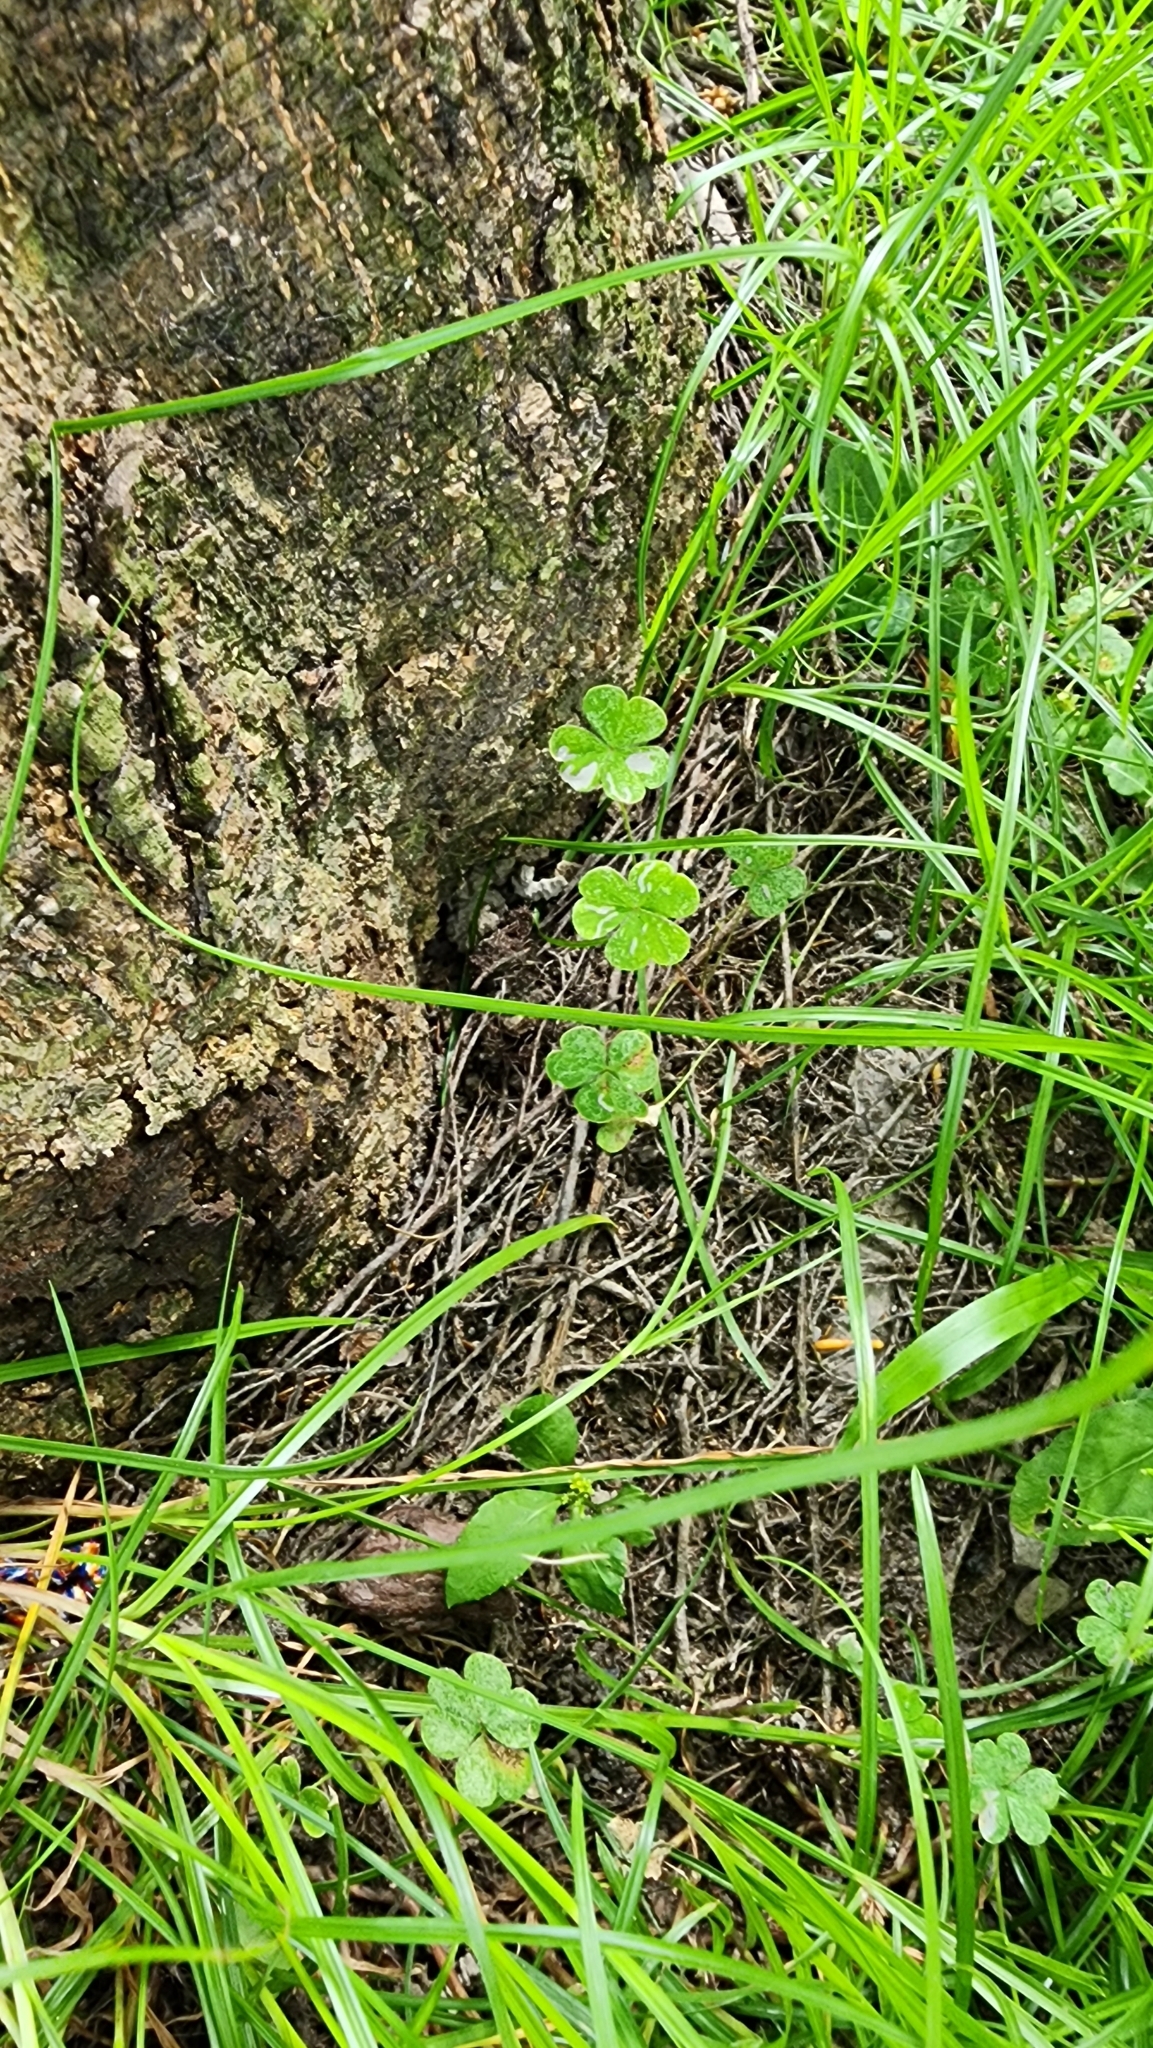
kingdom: Plantae
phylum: Tracheophyta
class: Magnoliopsida
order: Oxalidales
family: Oxalidaceae
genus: Oxalis
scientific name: Oxalis corniculata
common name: Procumbent yellow-sorrel
